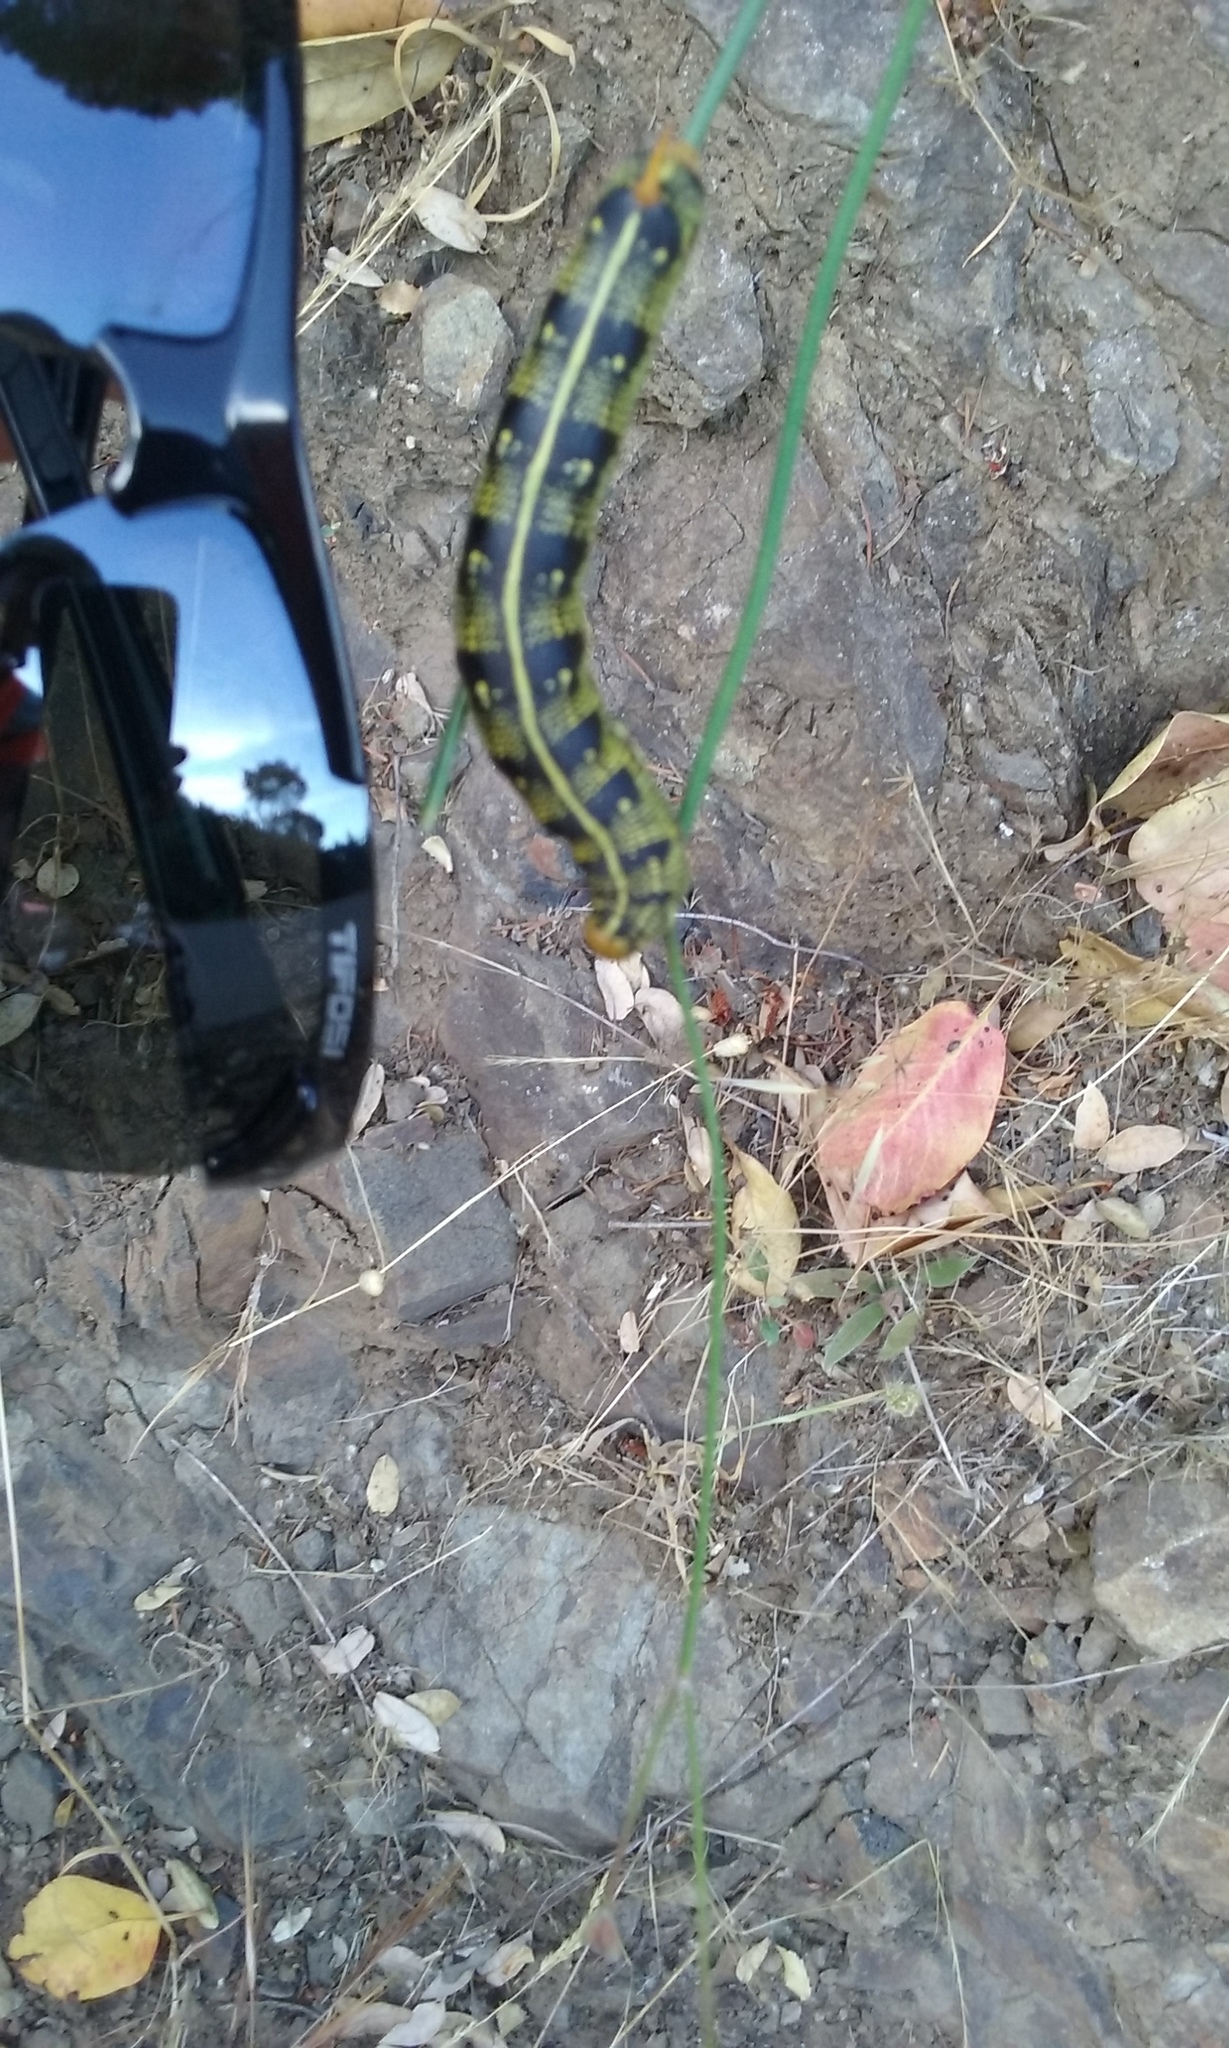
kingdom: Animalia
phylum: Arthropoda
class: Insecta
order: Lepidoptera
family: Sphingidae
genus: Hyles
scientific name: Hyles lineata
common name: White-lined sphinx
